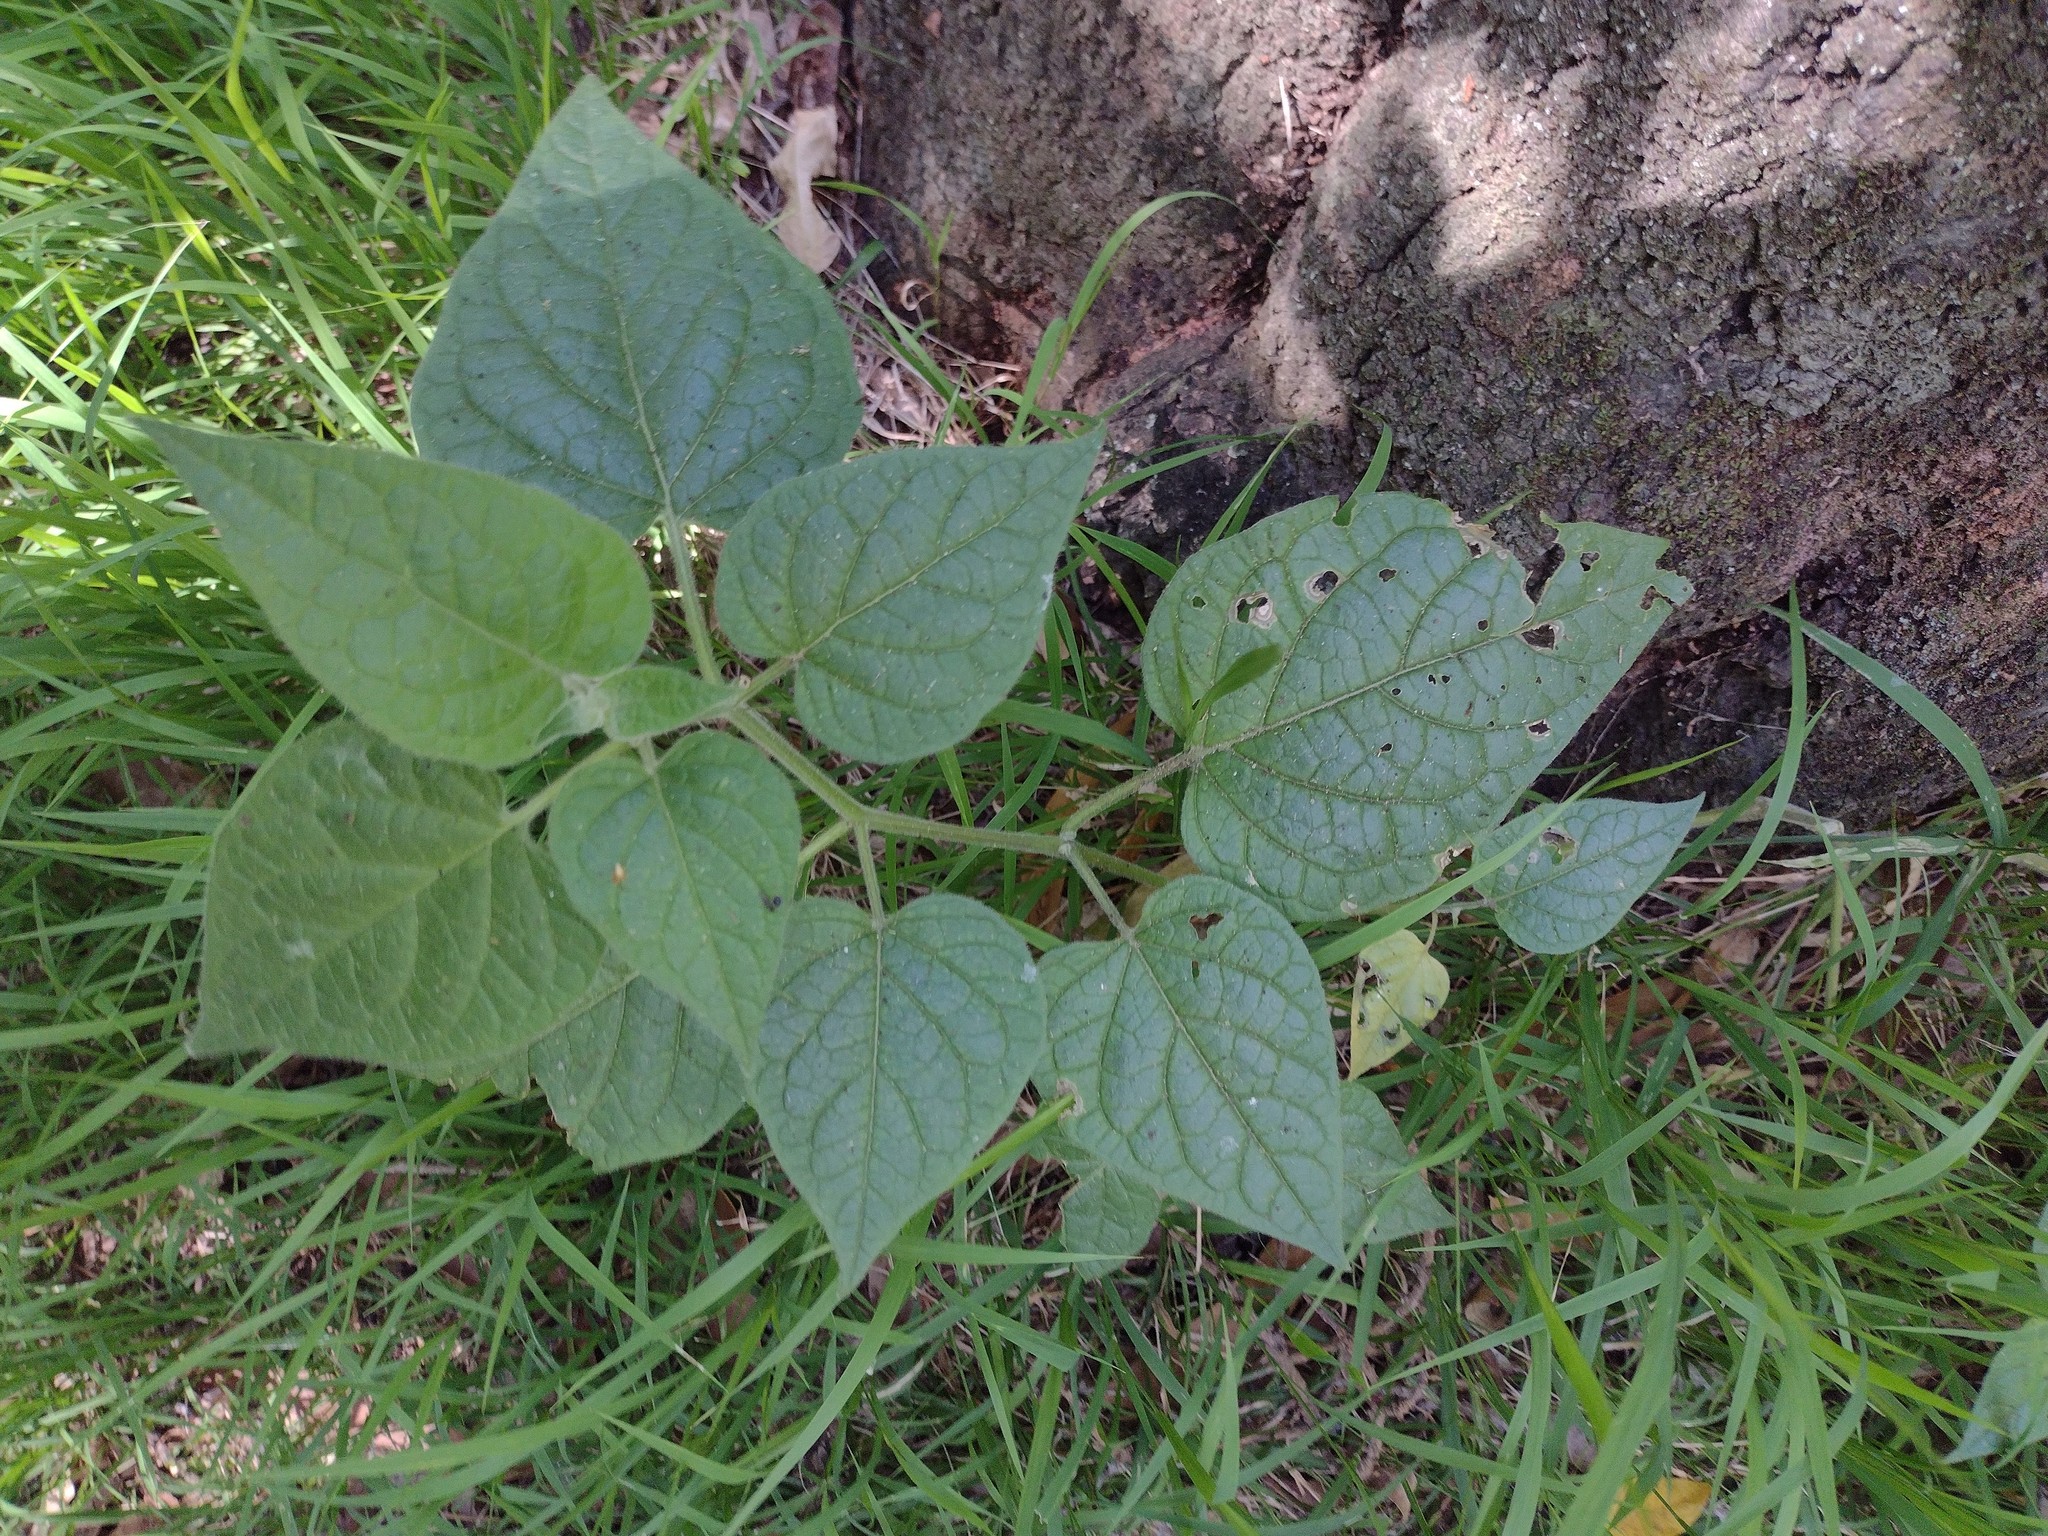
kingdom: Plantae
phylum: Tracheophyta
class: Magnoliopsida
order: Solanales
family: Solanaceae
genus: Physalis
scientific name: Physalis peruviana
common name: Cape-gooseberry
